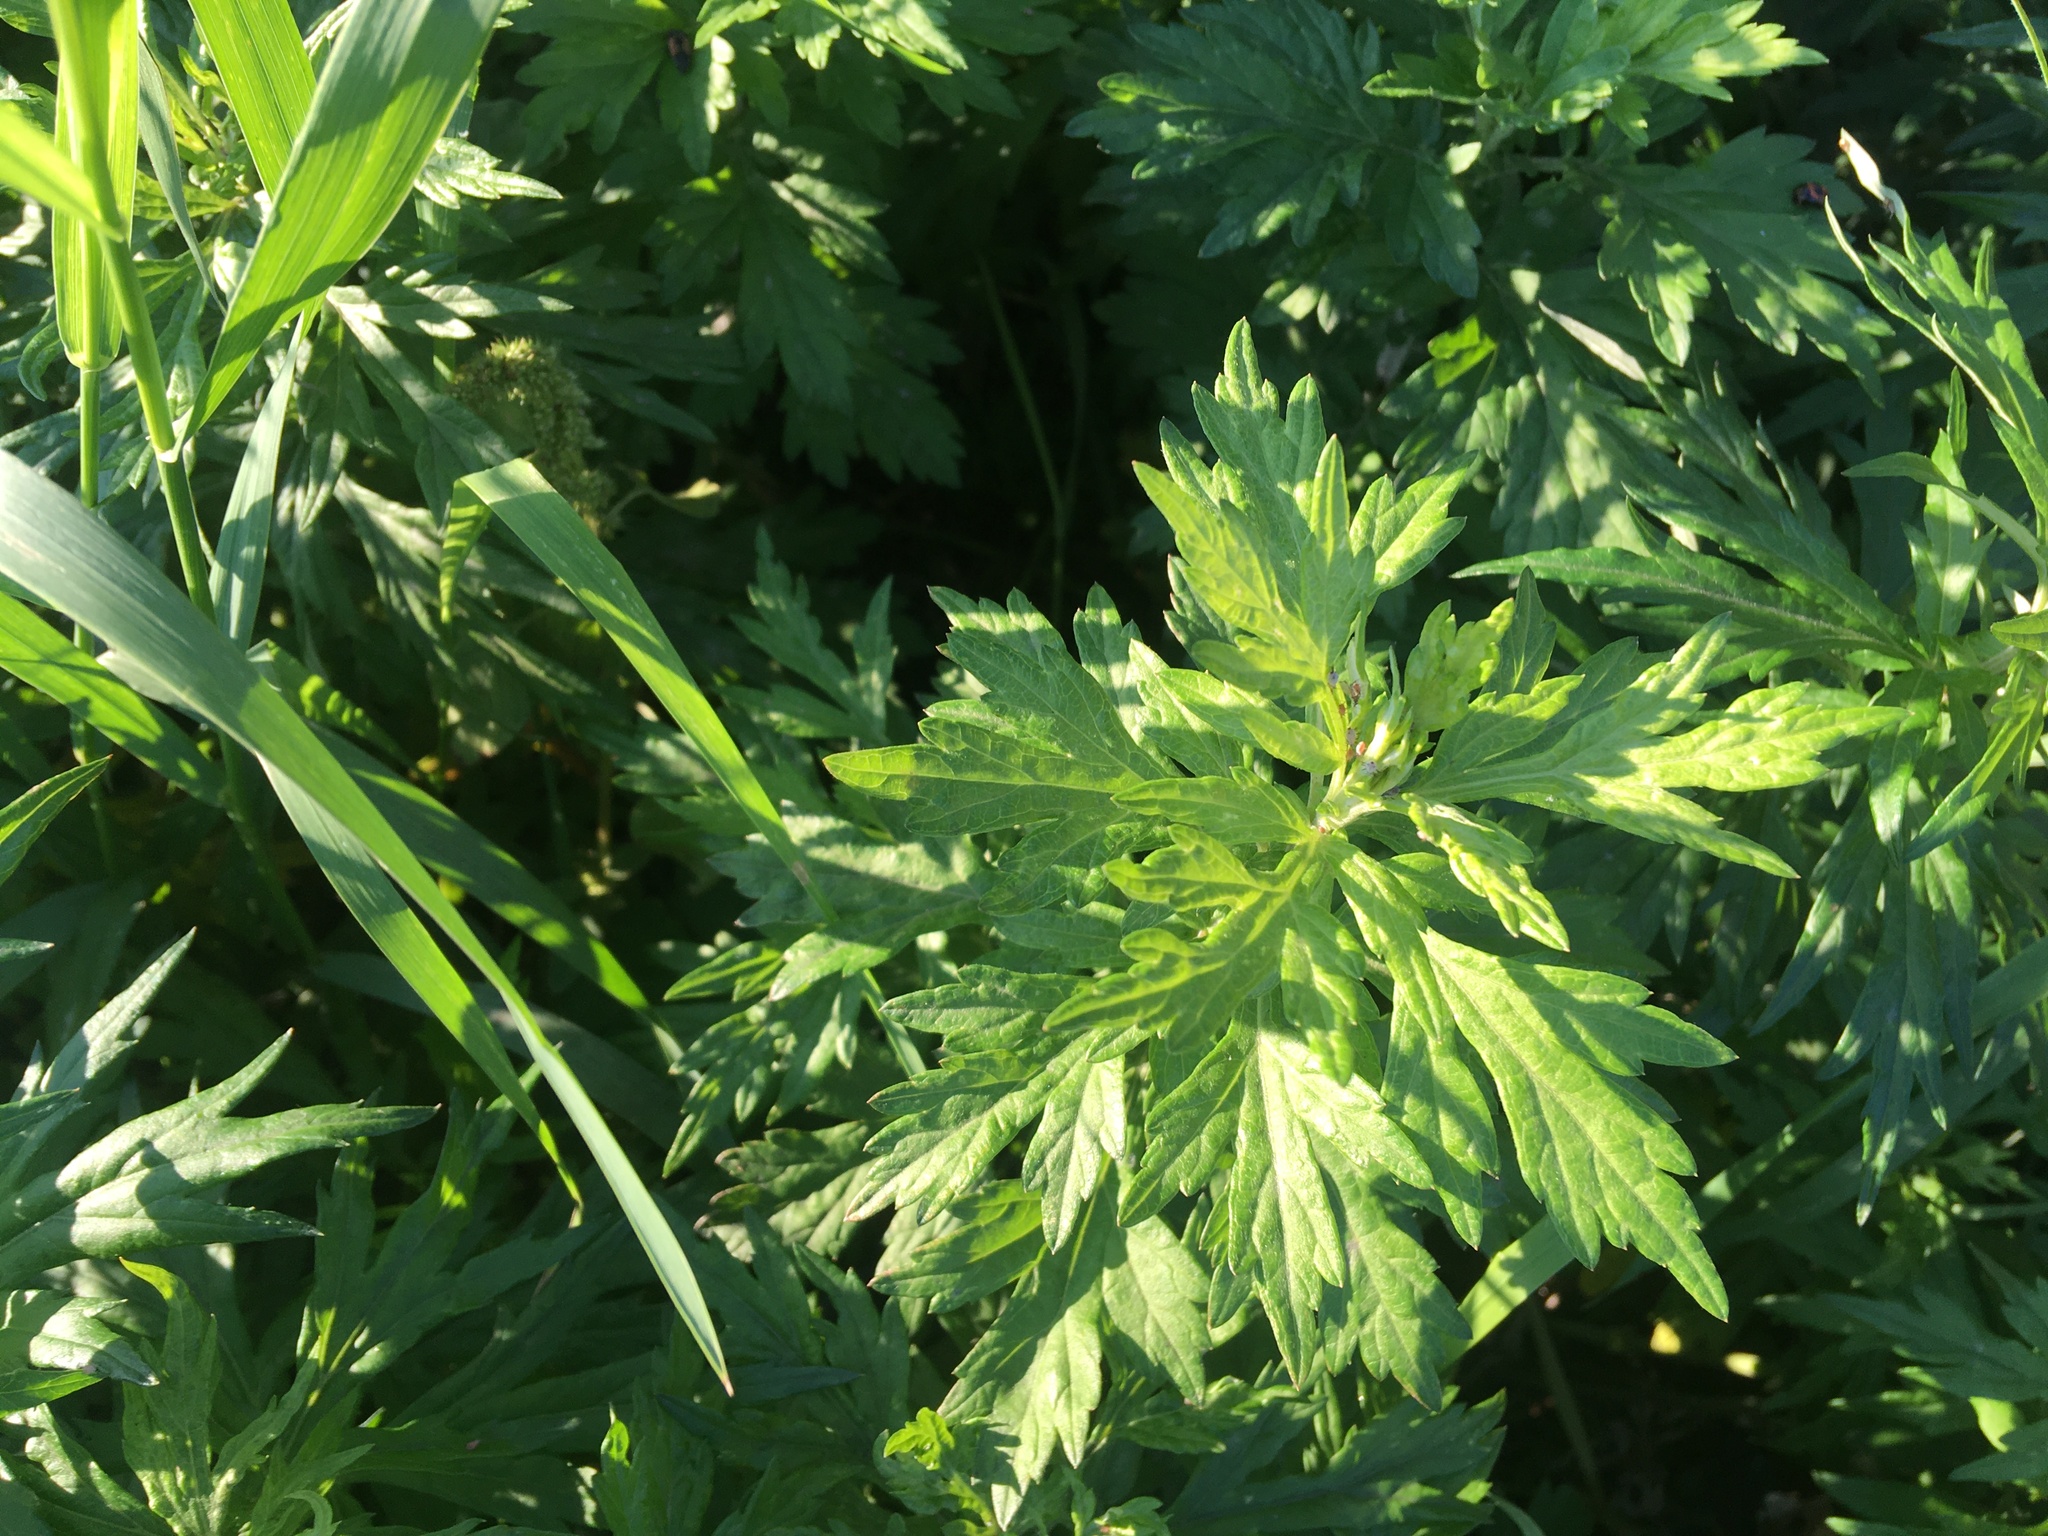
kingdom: Plantae
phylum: Tracheophyta
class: Magnoliopsida
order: Asterales
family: Asteraceae
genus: Artemisia
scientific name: Artemisia vulgaris
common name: Mugwort
